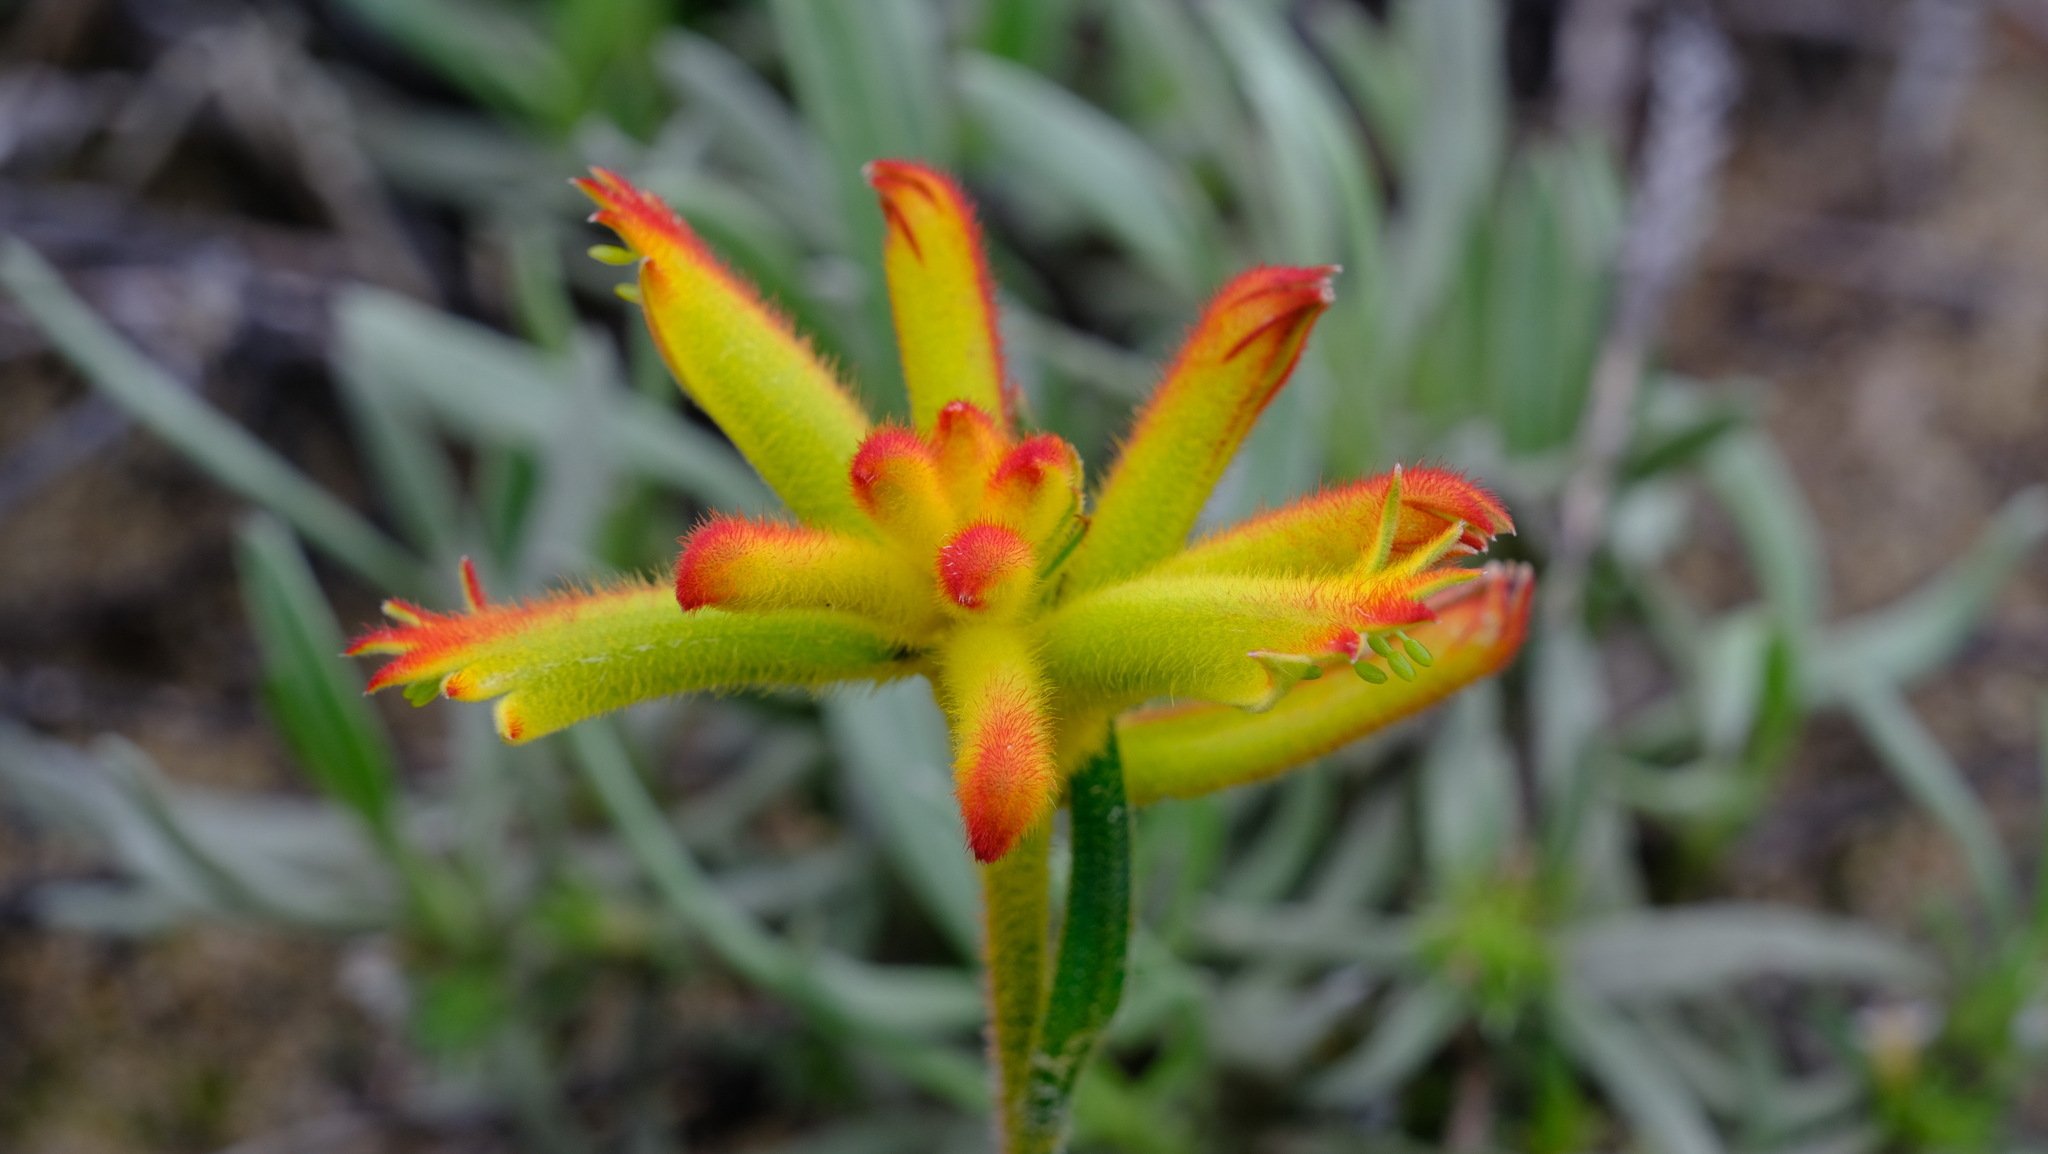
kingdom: Plantae
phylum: Tracheophyta
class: Liliopsida
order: Commelinales
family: Haemodoraceae
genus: Anigozanthos
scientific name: Anigozanthos humilis
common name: Cat's-paw
